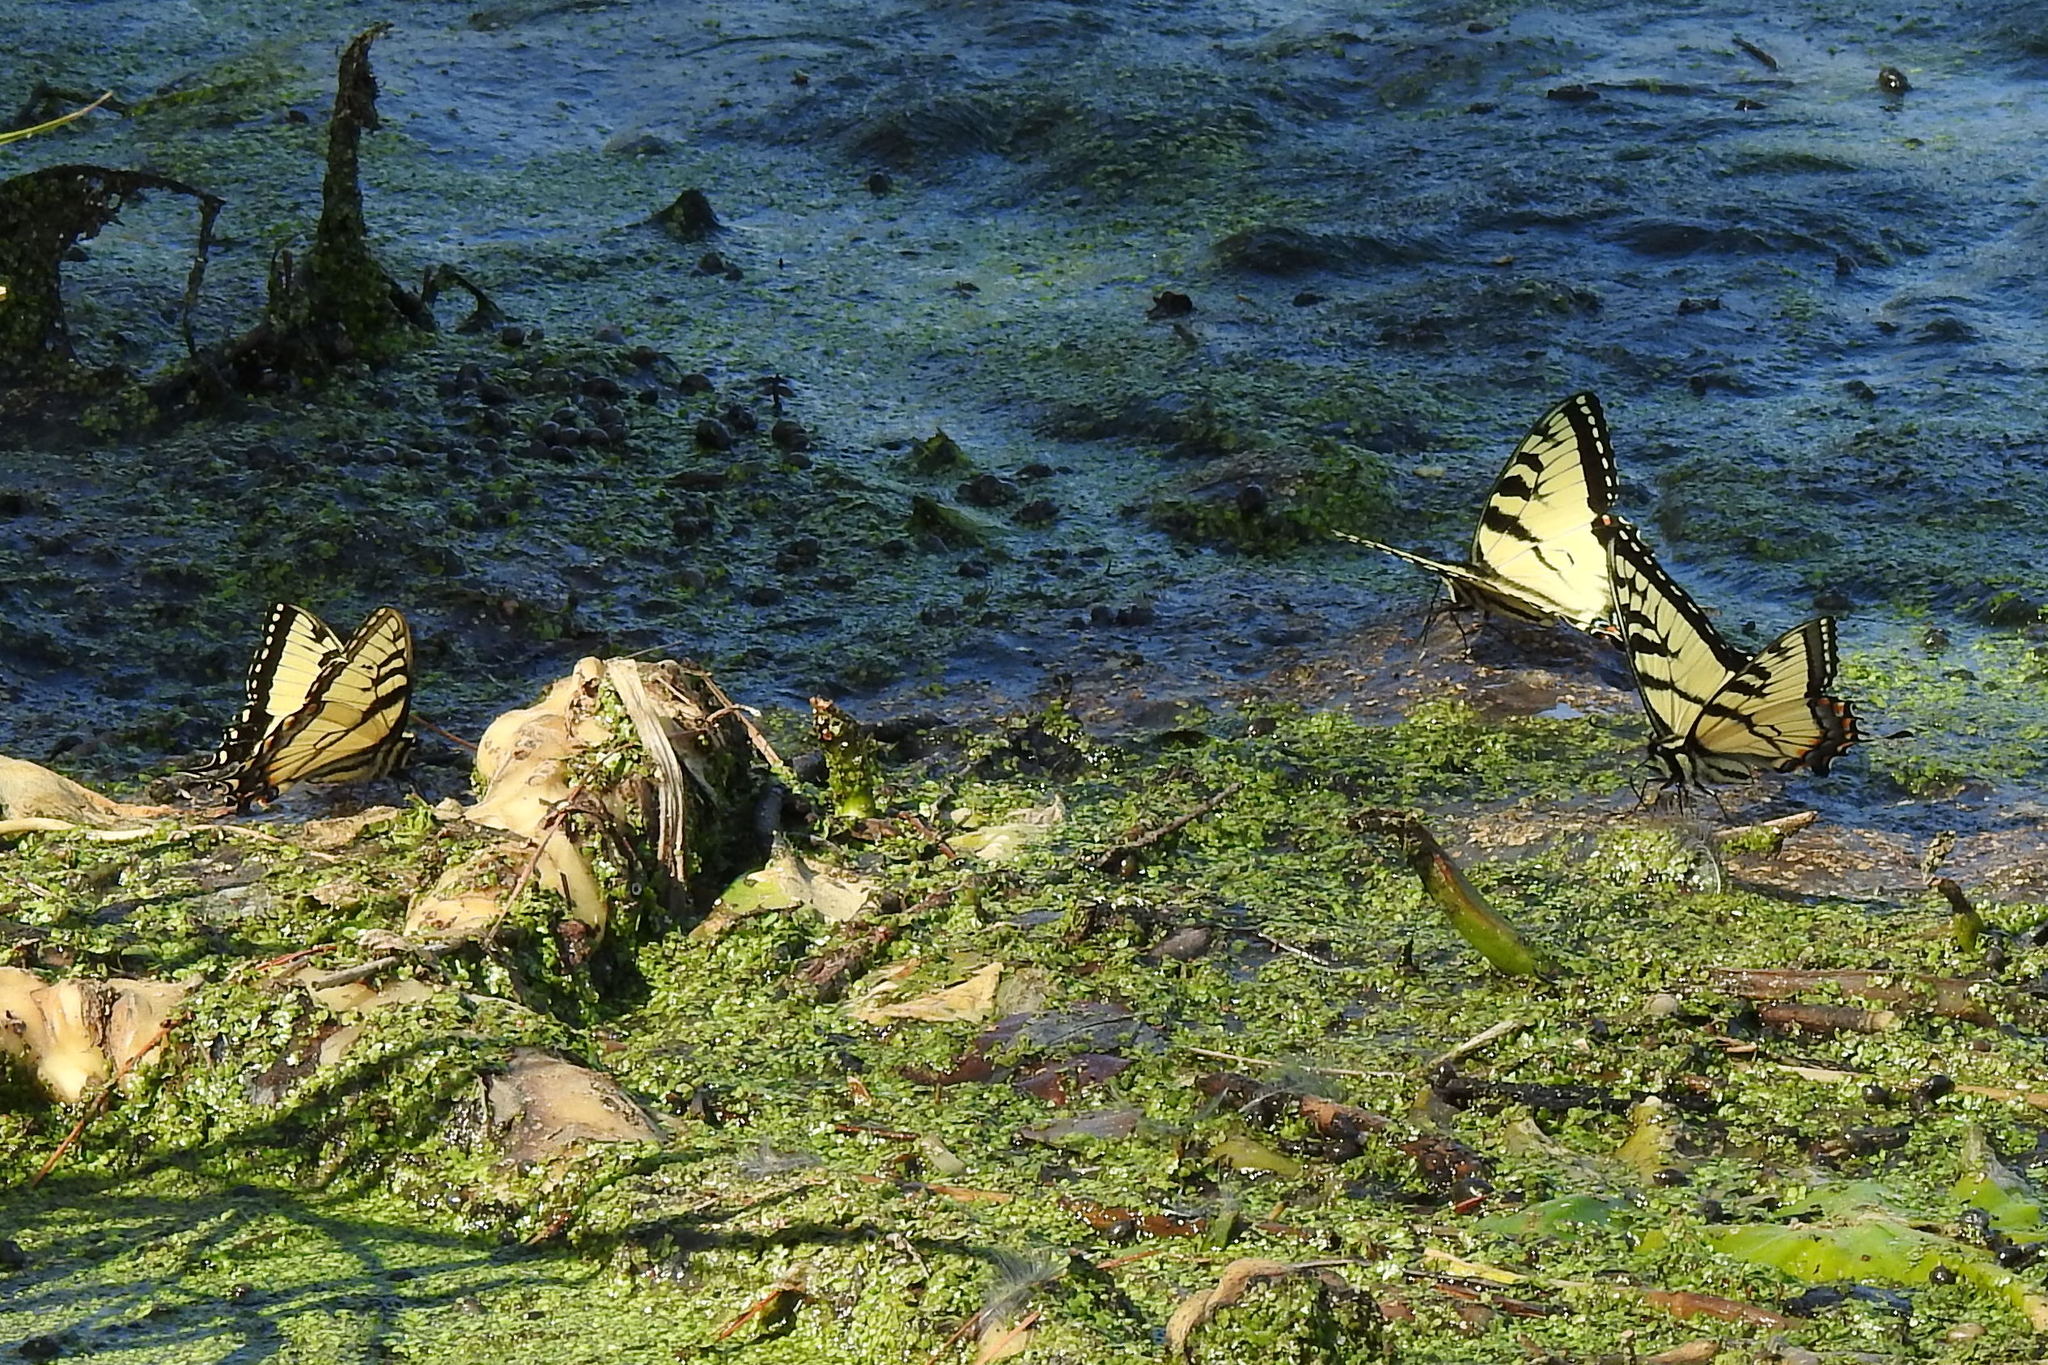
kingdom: Animalia
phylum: Arthropoda
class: Insecta
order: Lepidoptera
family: Papilionidae
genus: Papilio
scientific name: Papilio glaucus
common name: Tiger swallowtail
